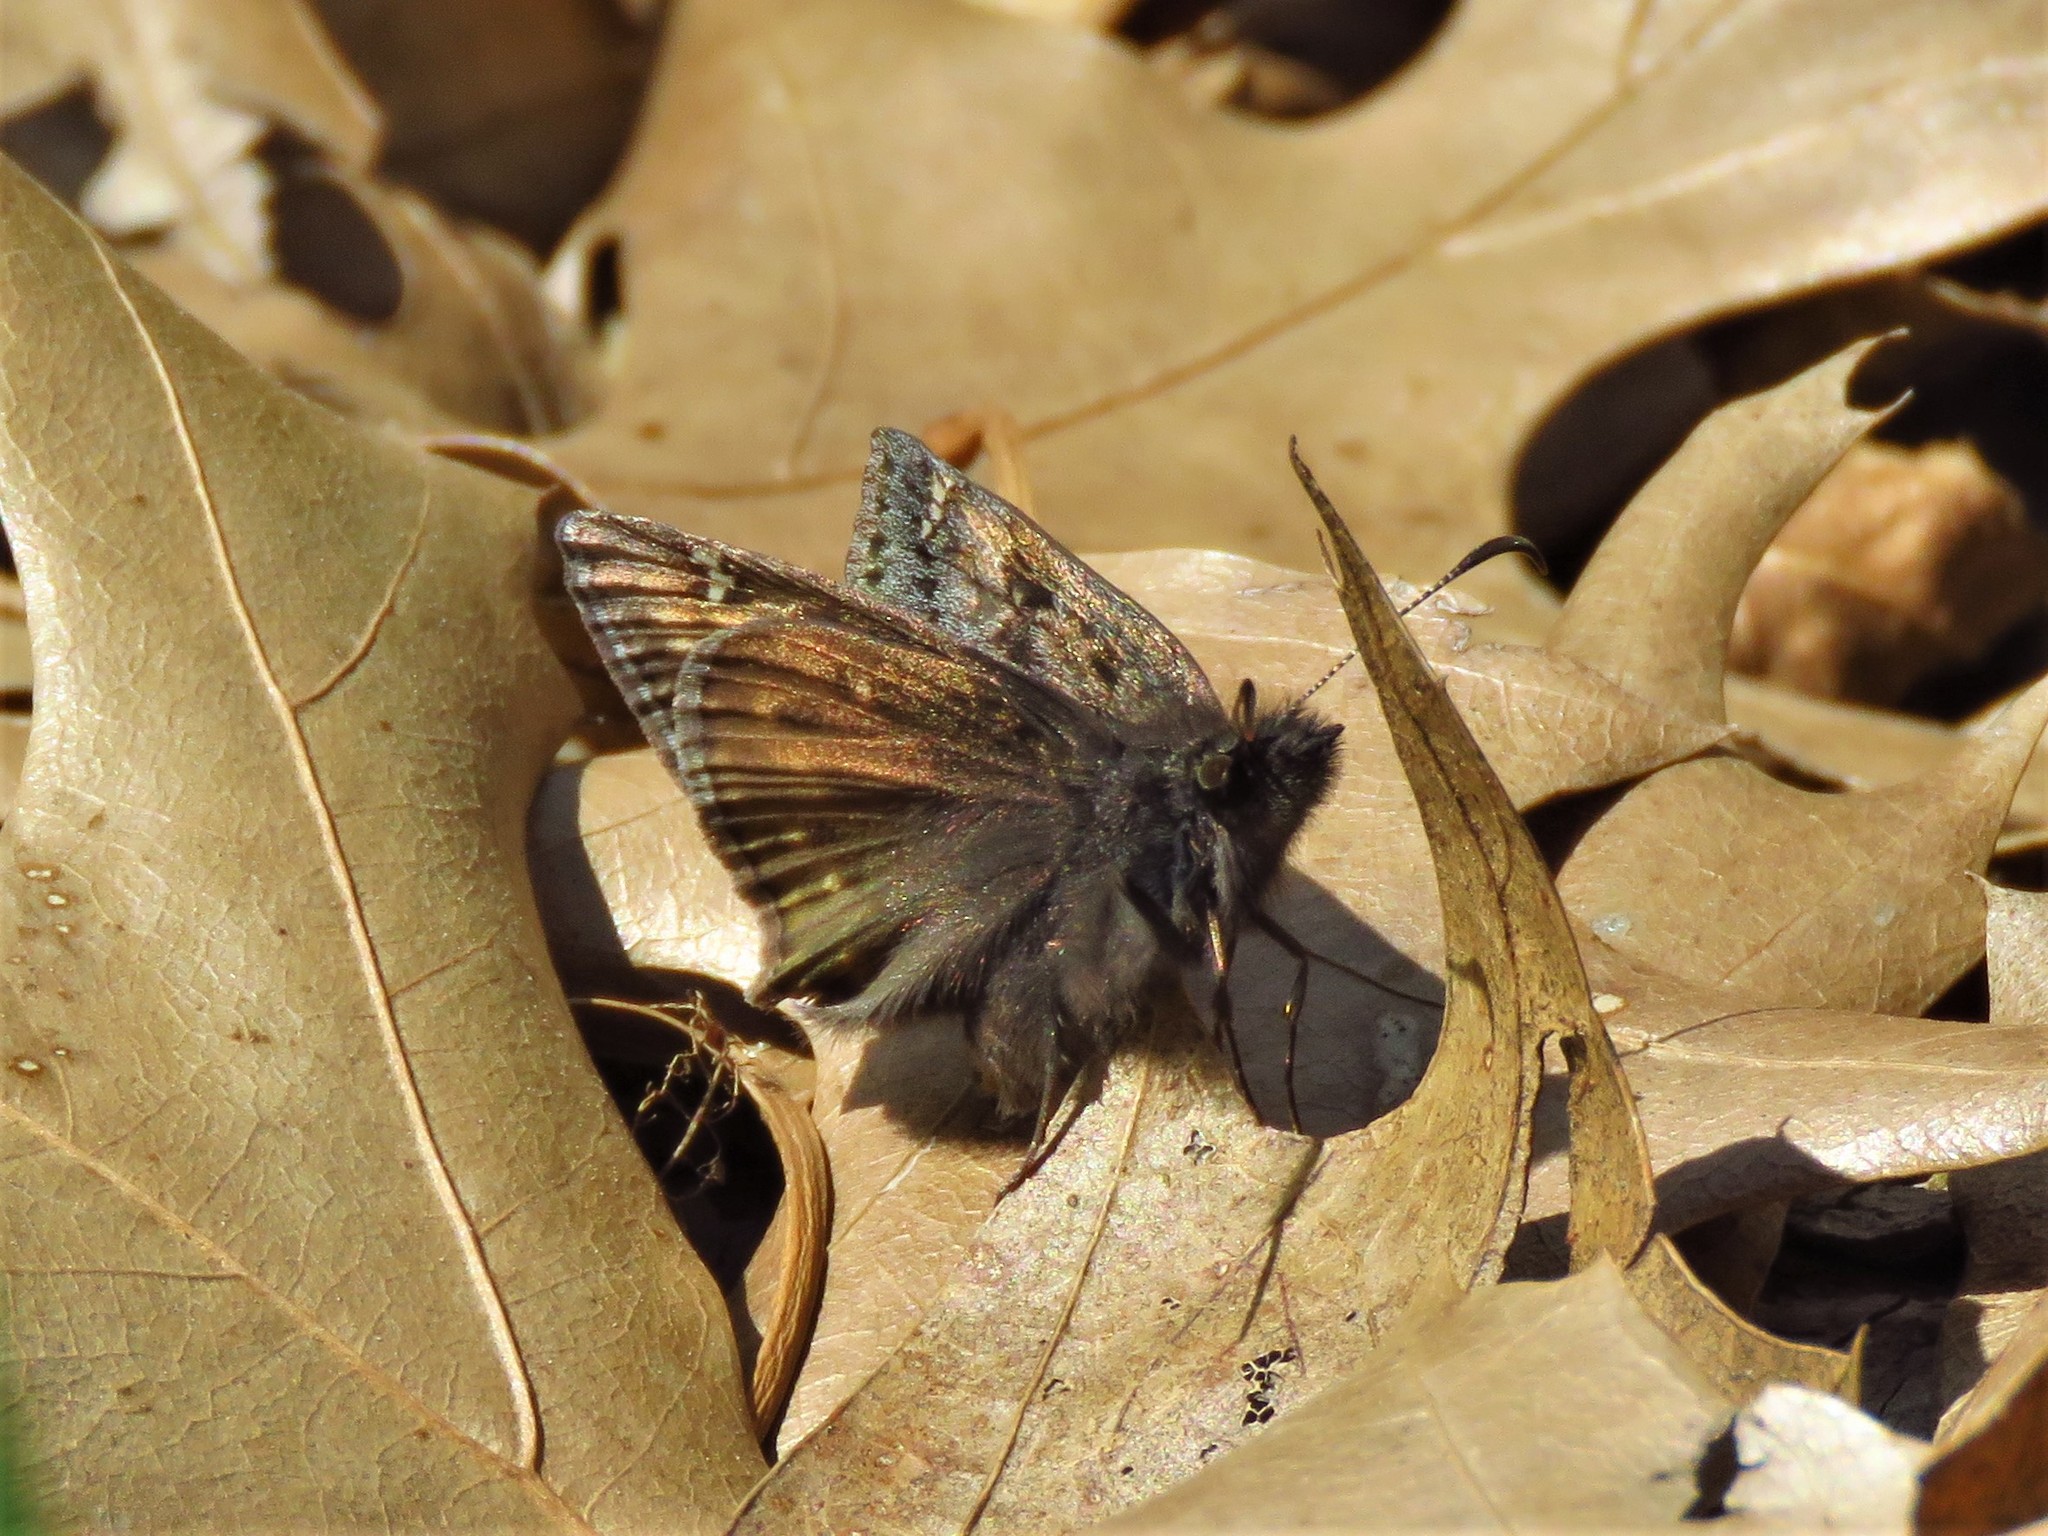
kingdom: Animalia
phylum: Arthropoda
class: Insecta
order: Lepidoptera
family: Hesperiidae
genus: Erynnis
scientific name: Erynnis juvenalis
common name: Juvenal's duskywing
